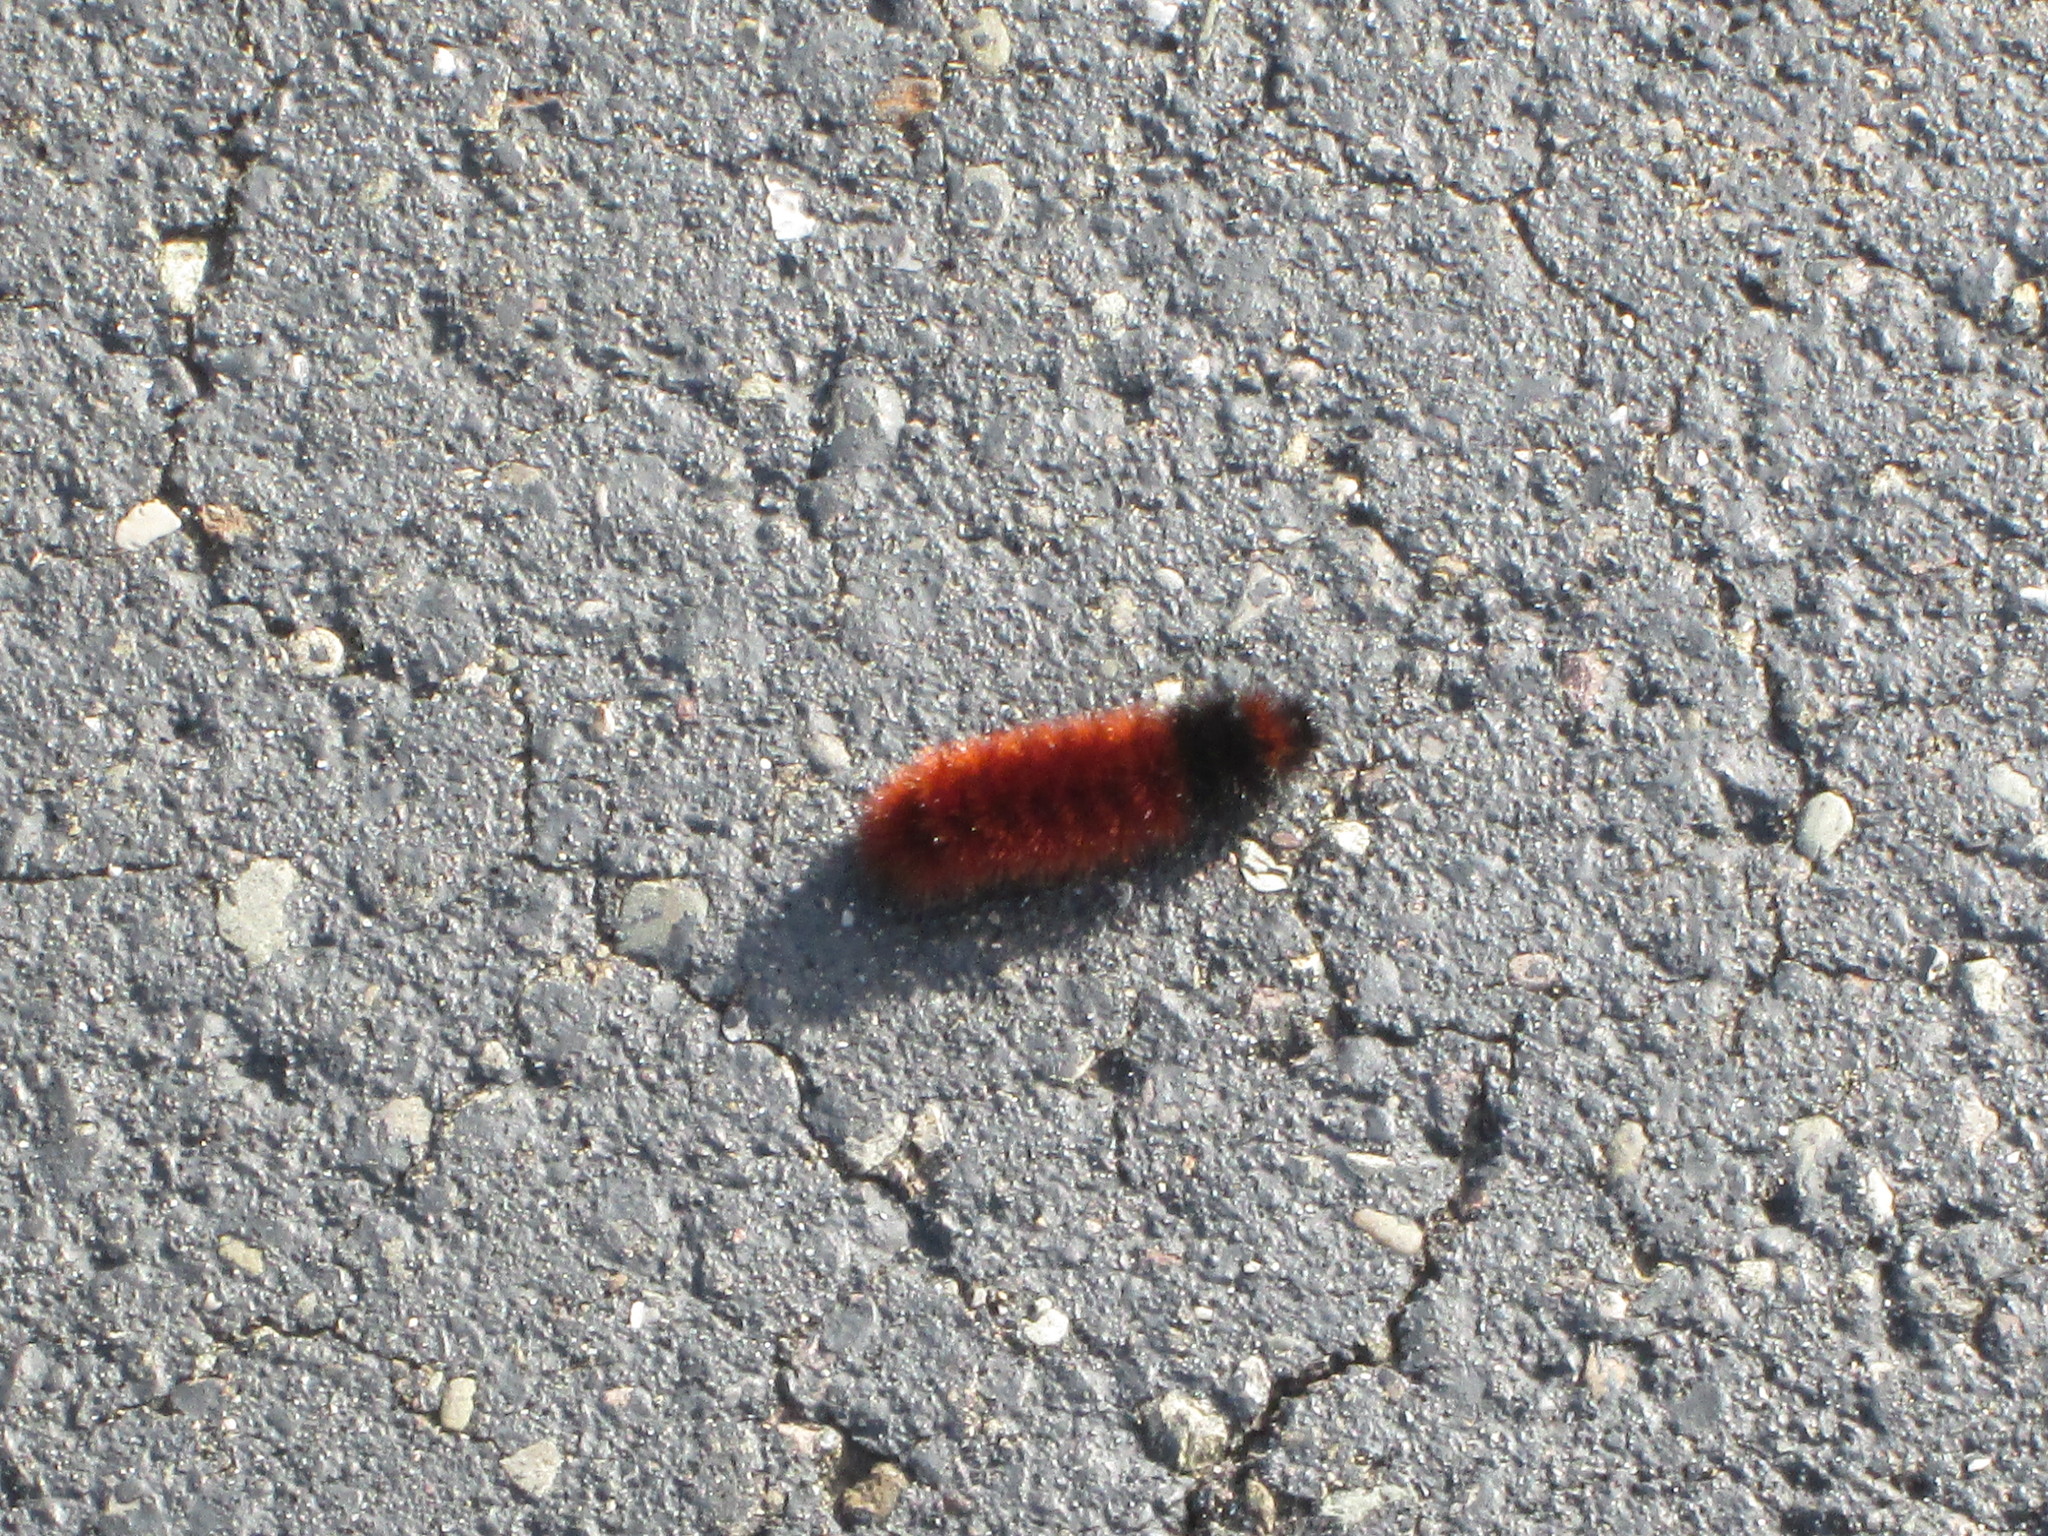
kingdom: Animalia
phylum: Arthropoda
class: Insecta
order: Lepidoptera
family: Erebidae
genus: Pyrrharctia
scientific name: Pyrrharctia isabella
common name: Isabella tiger moth
